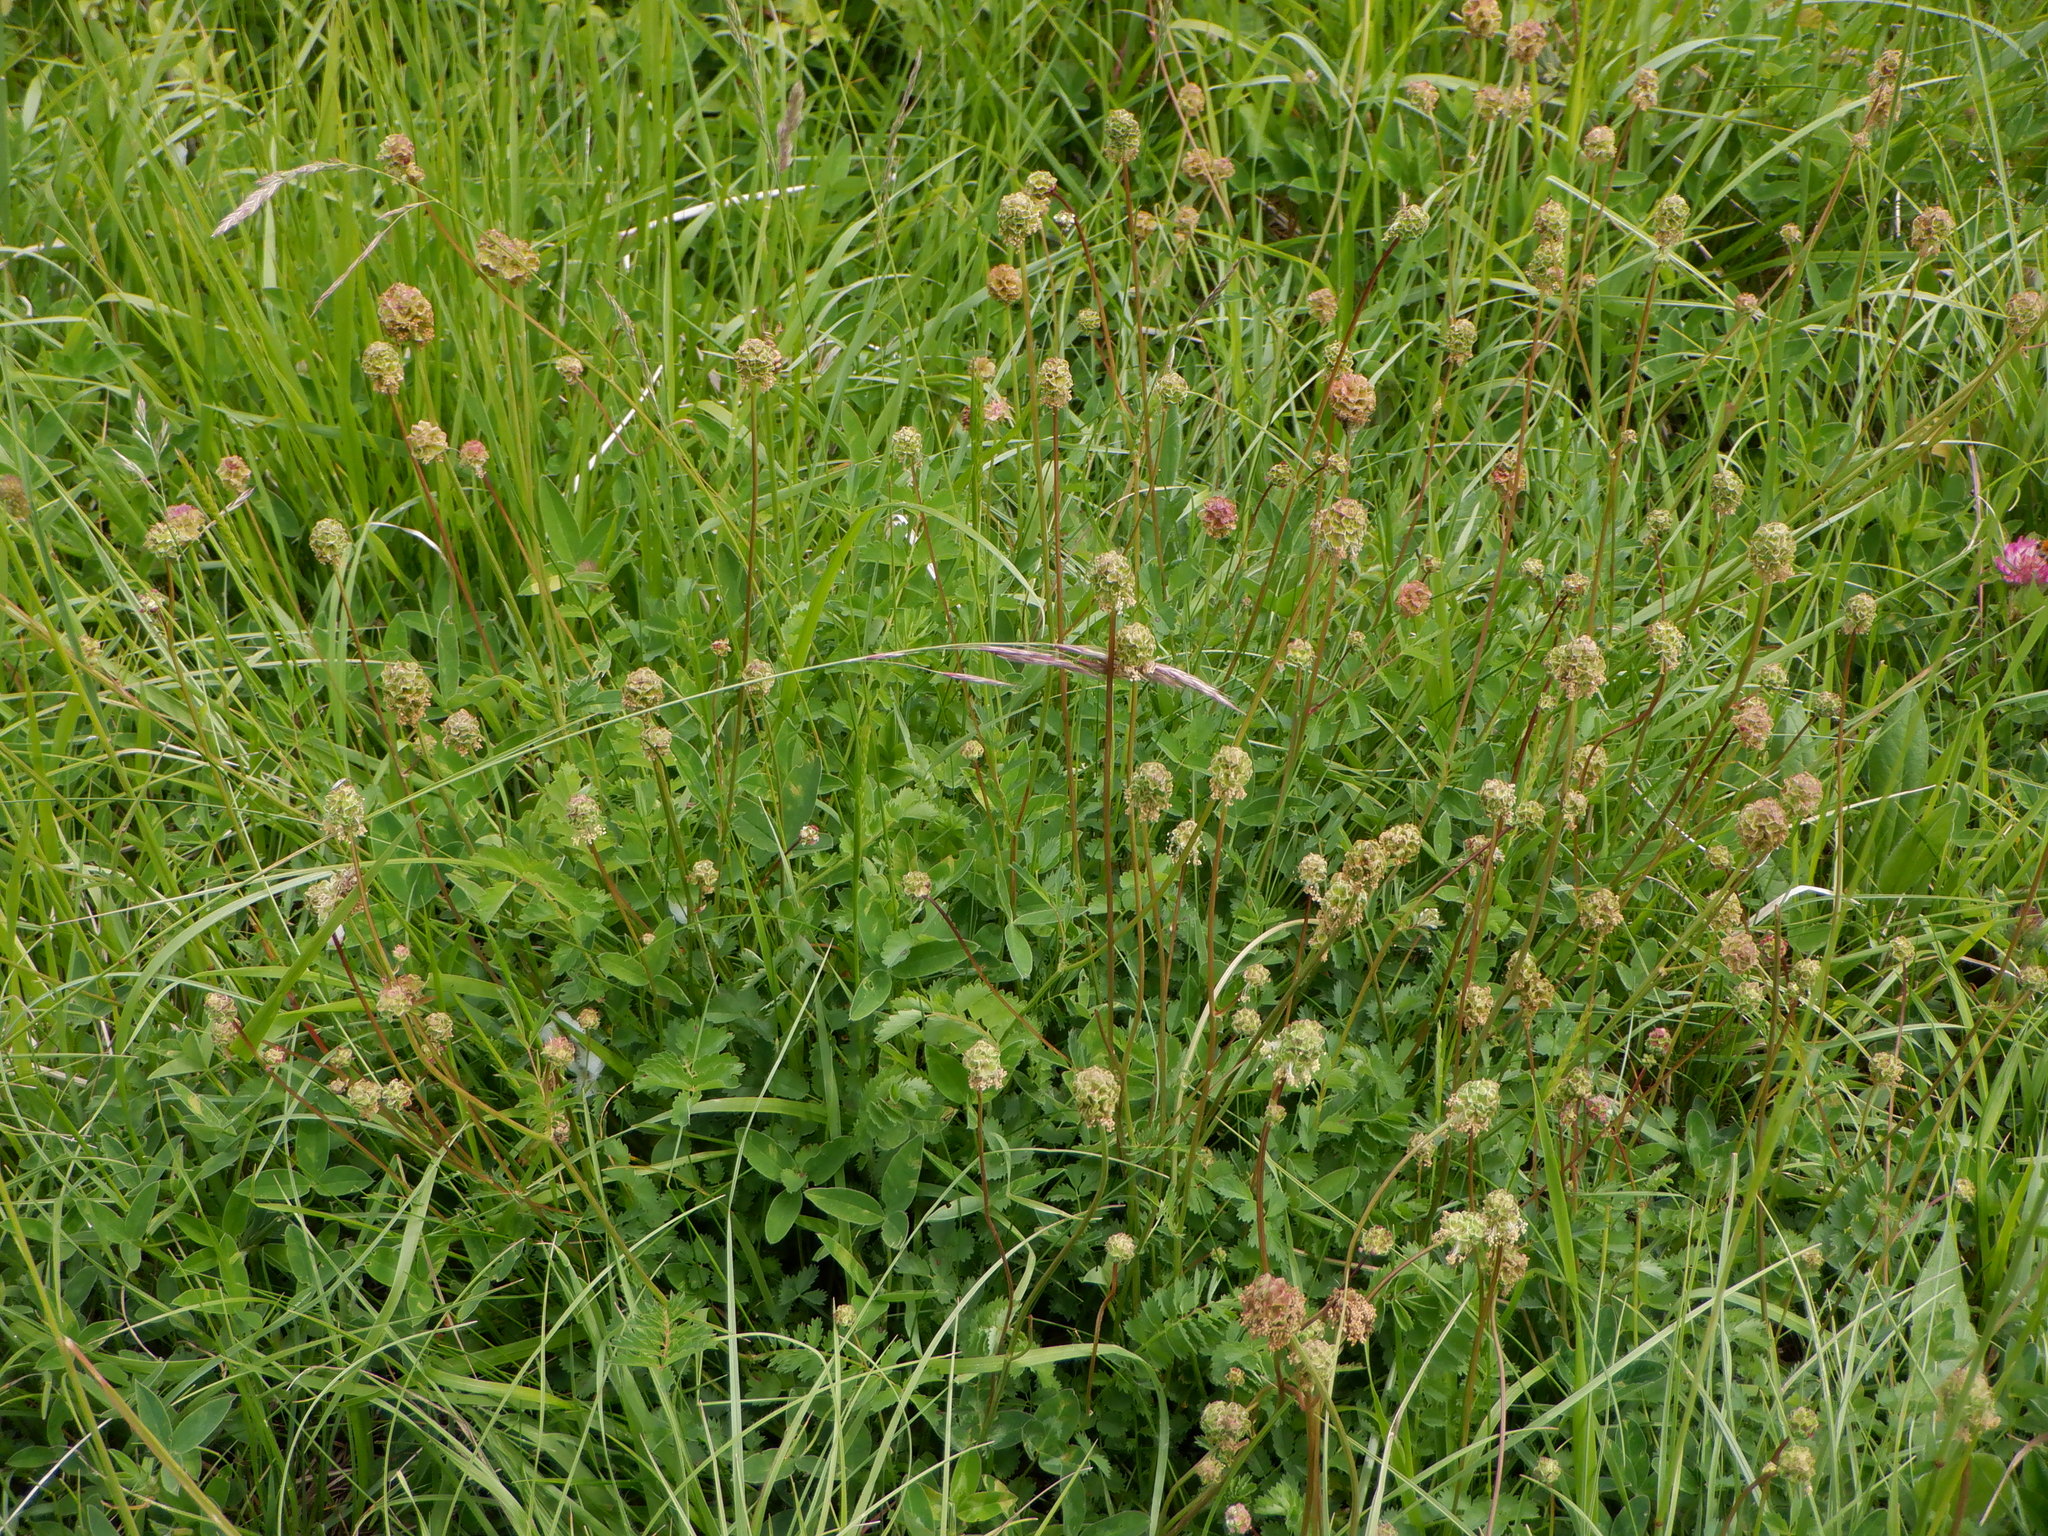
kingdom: Plantae
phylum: Tracheophyta
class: Magnoliopsida
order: Rosales
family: Rosaceae
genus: Poterium
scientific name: Poterium sanguisorba
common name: Salad burnet
